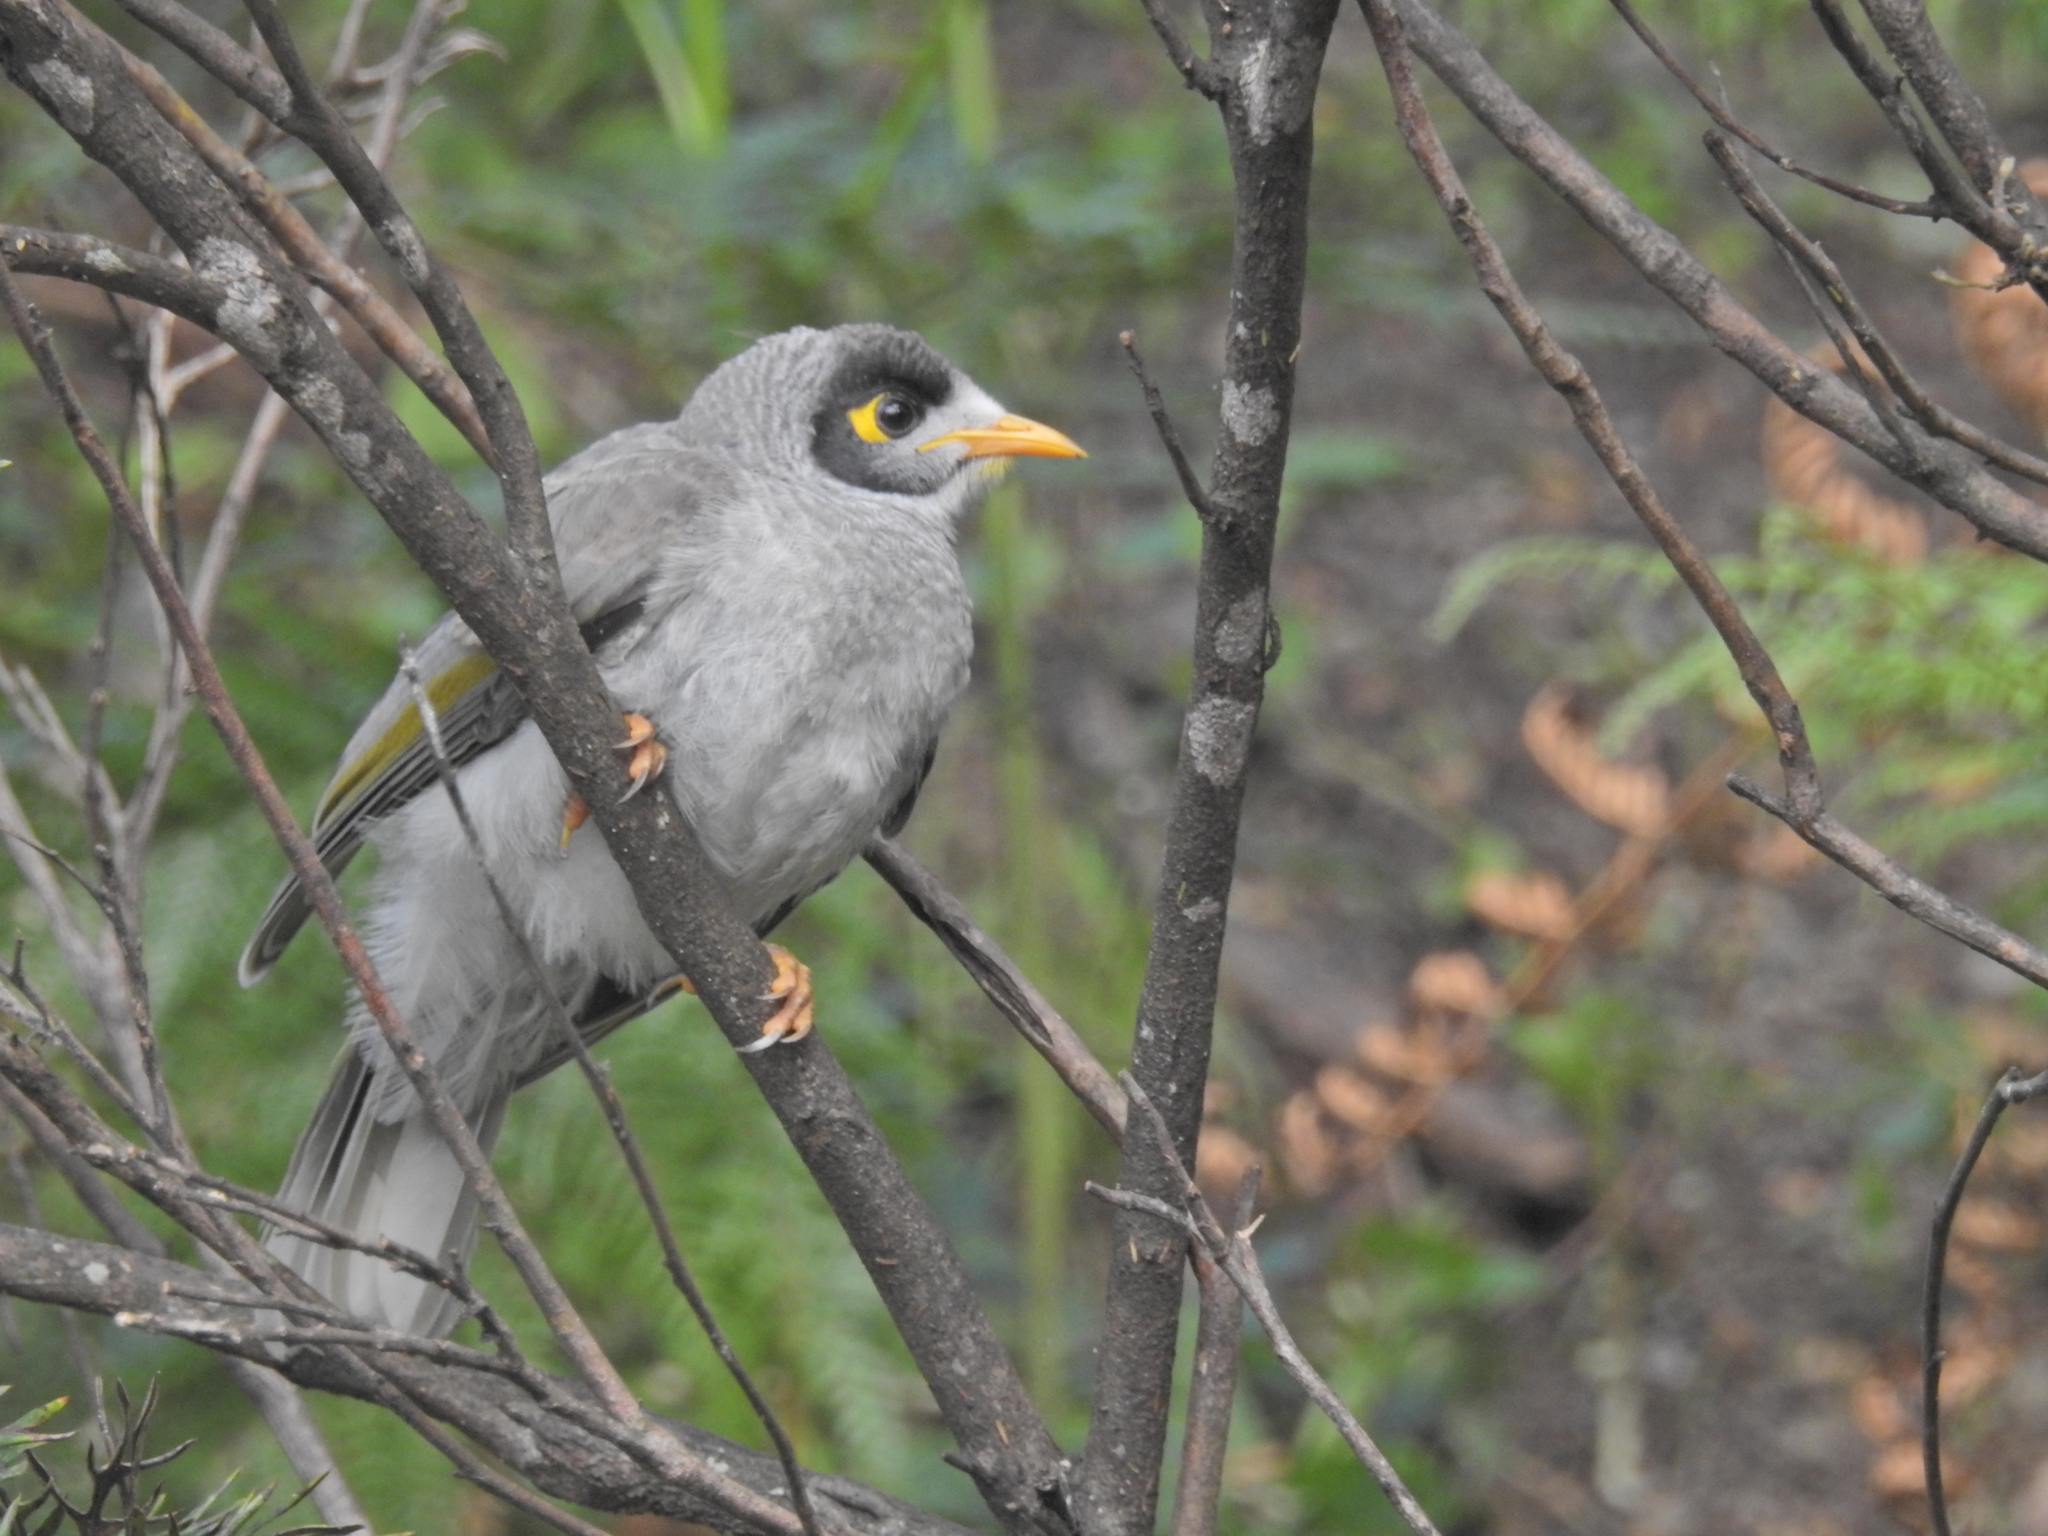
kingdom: Animalia
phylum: Chordata
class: Aves
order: Passeriformes
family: Meliphagidae
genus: Manorina
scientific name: Manorina melanocephala
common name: Noisy miner
